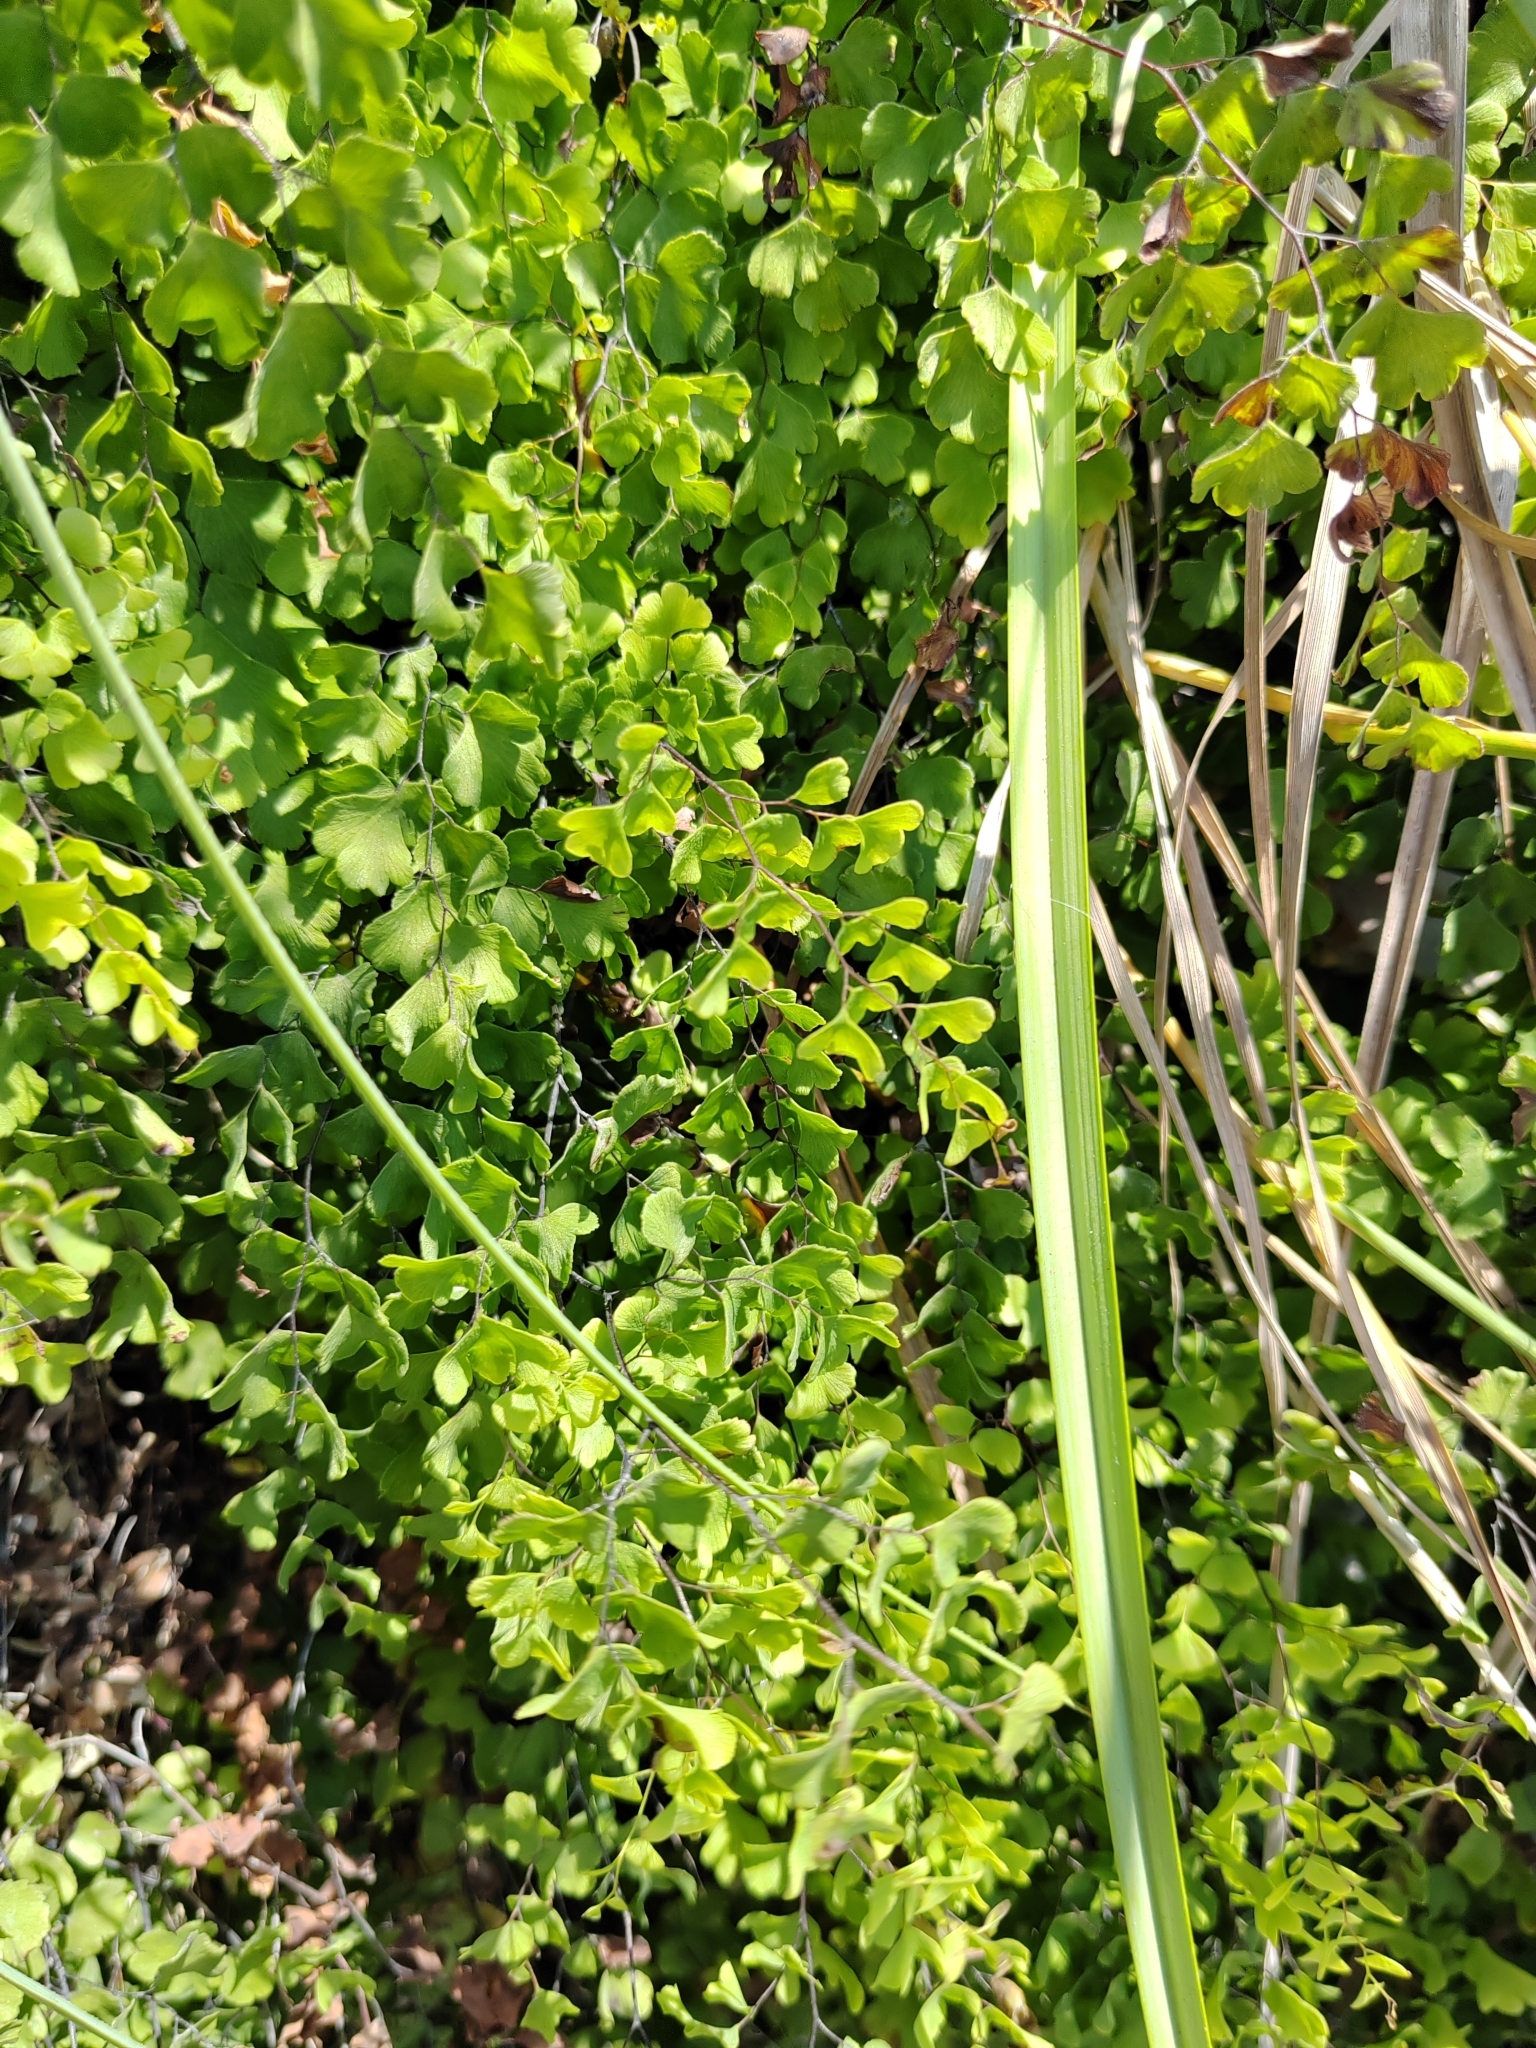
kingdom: Plantae
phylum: Tracheophyta
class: Polypodiopsida
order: Polypodiales
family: Pteridaceae
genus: Adiantum
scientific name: Adiantum capillus-veneris
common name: Maidenhair fern
